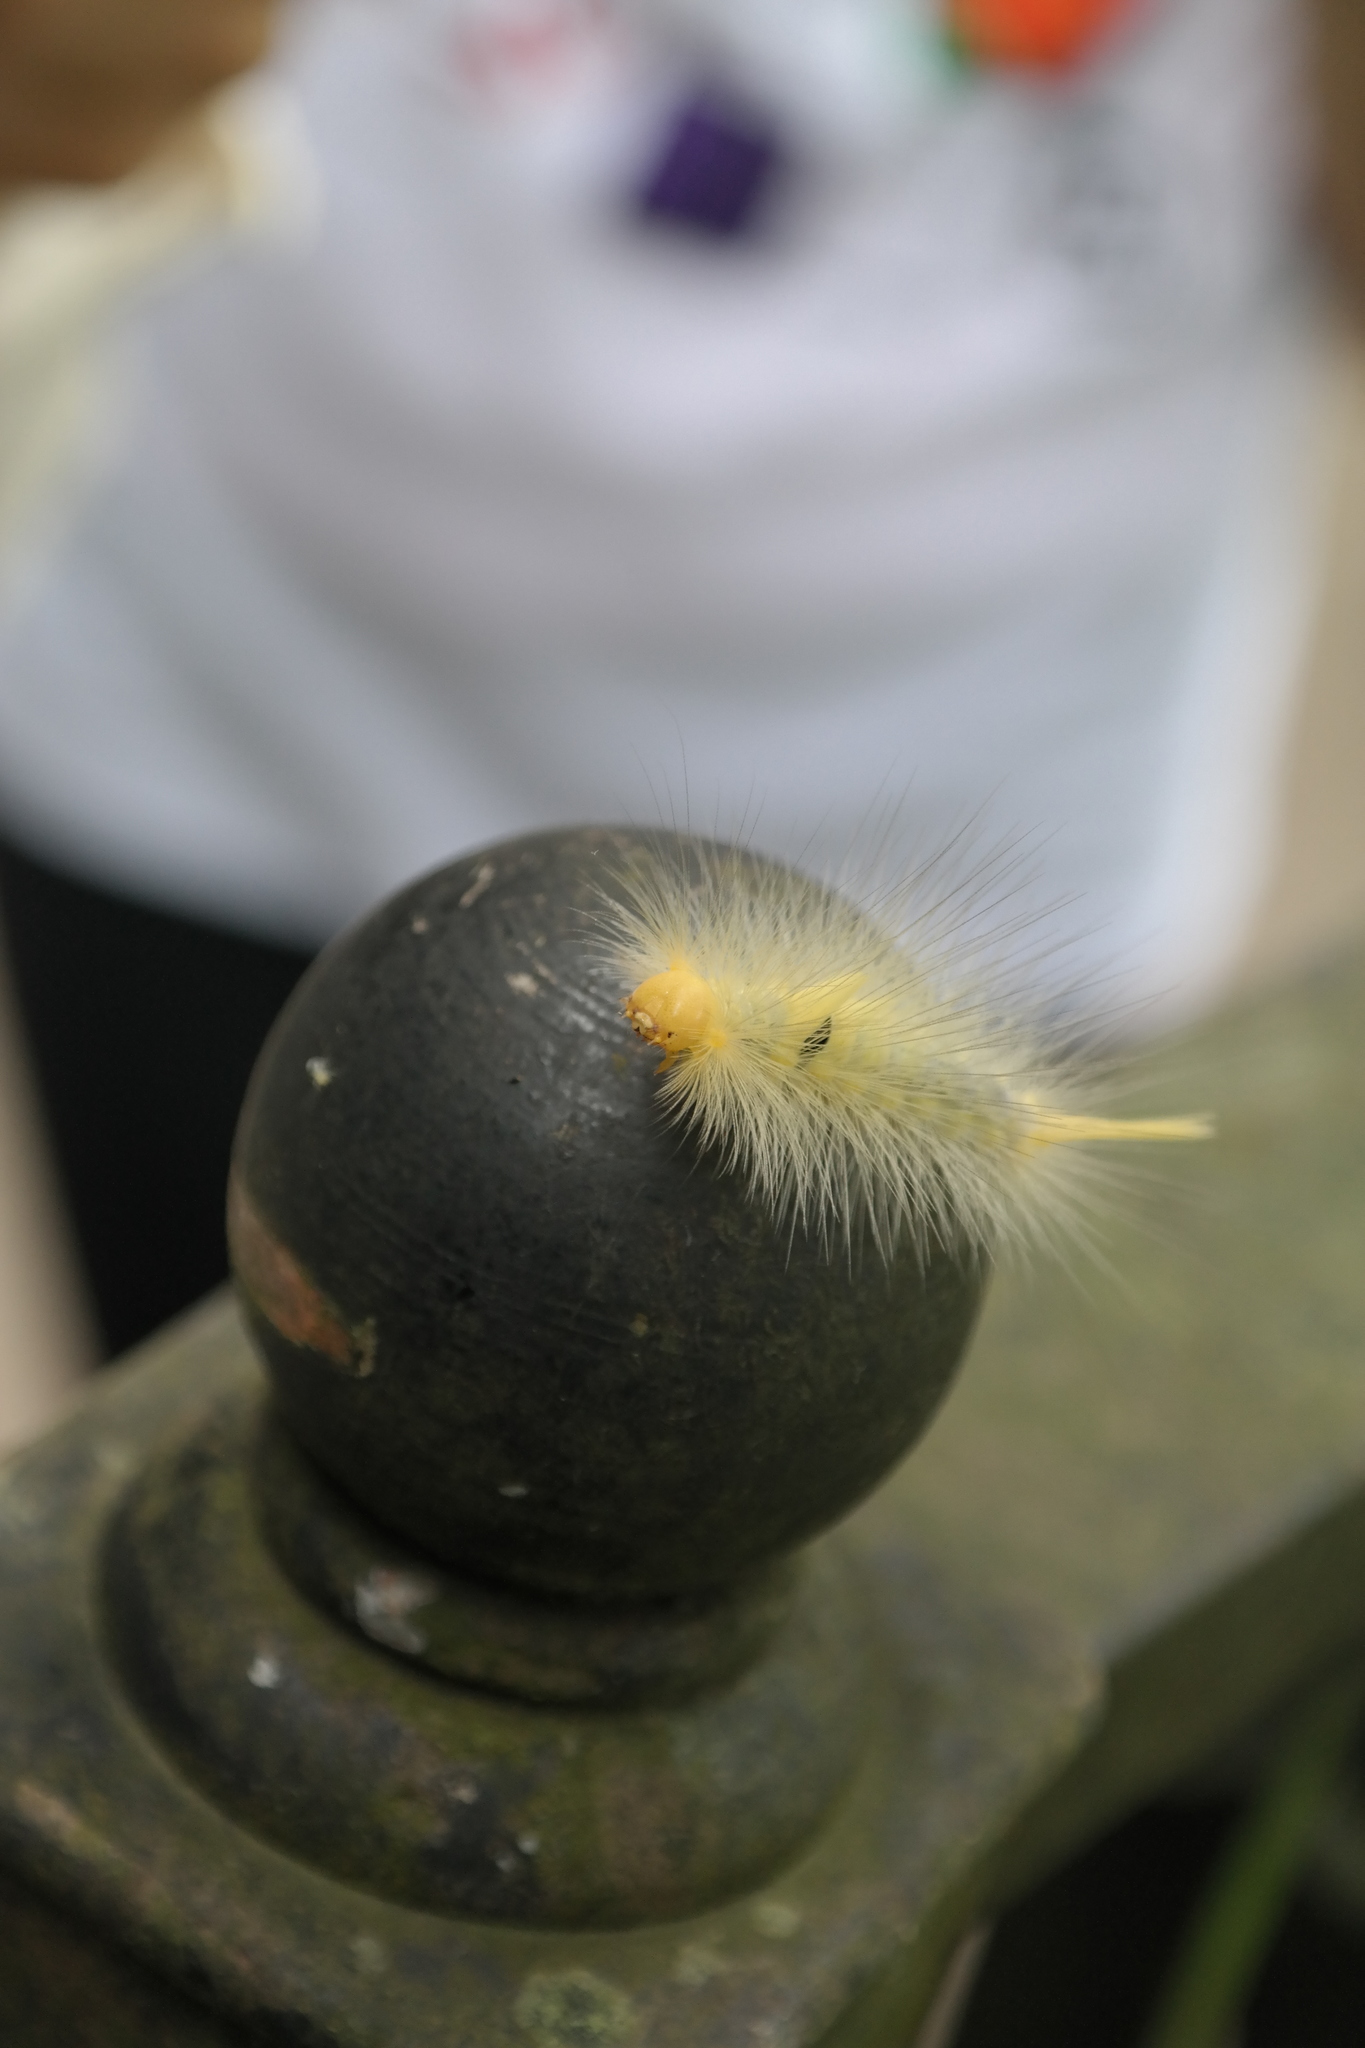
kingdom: Animalia
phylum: Arthropoda
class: Insecta
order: Lepidoptera
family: Erebidae
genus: Calliteara
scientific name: Calliteara grotei
